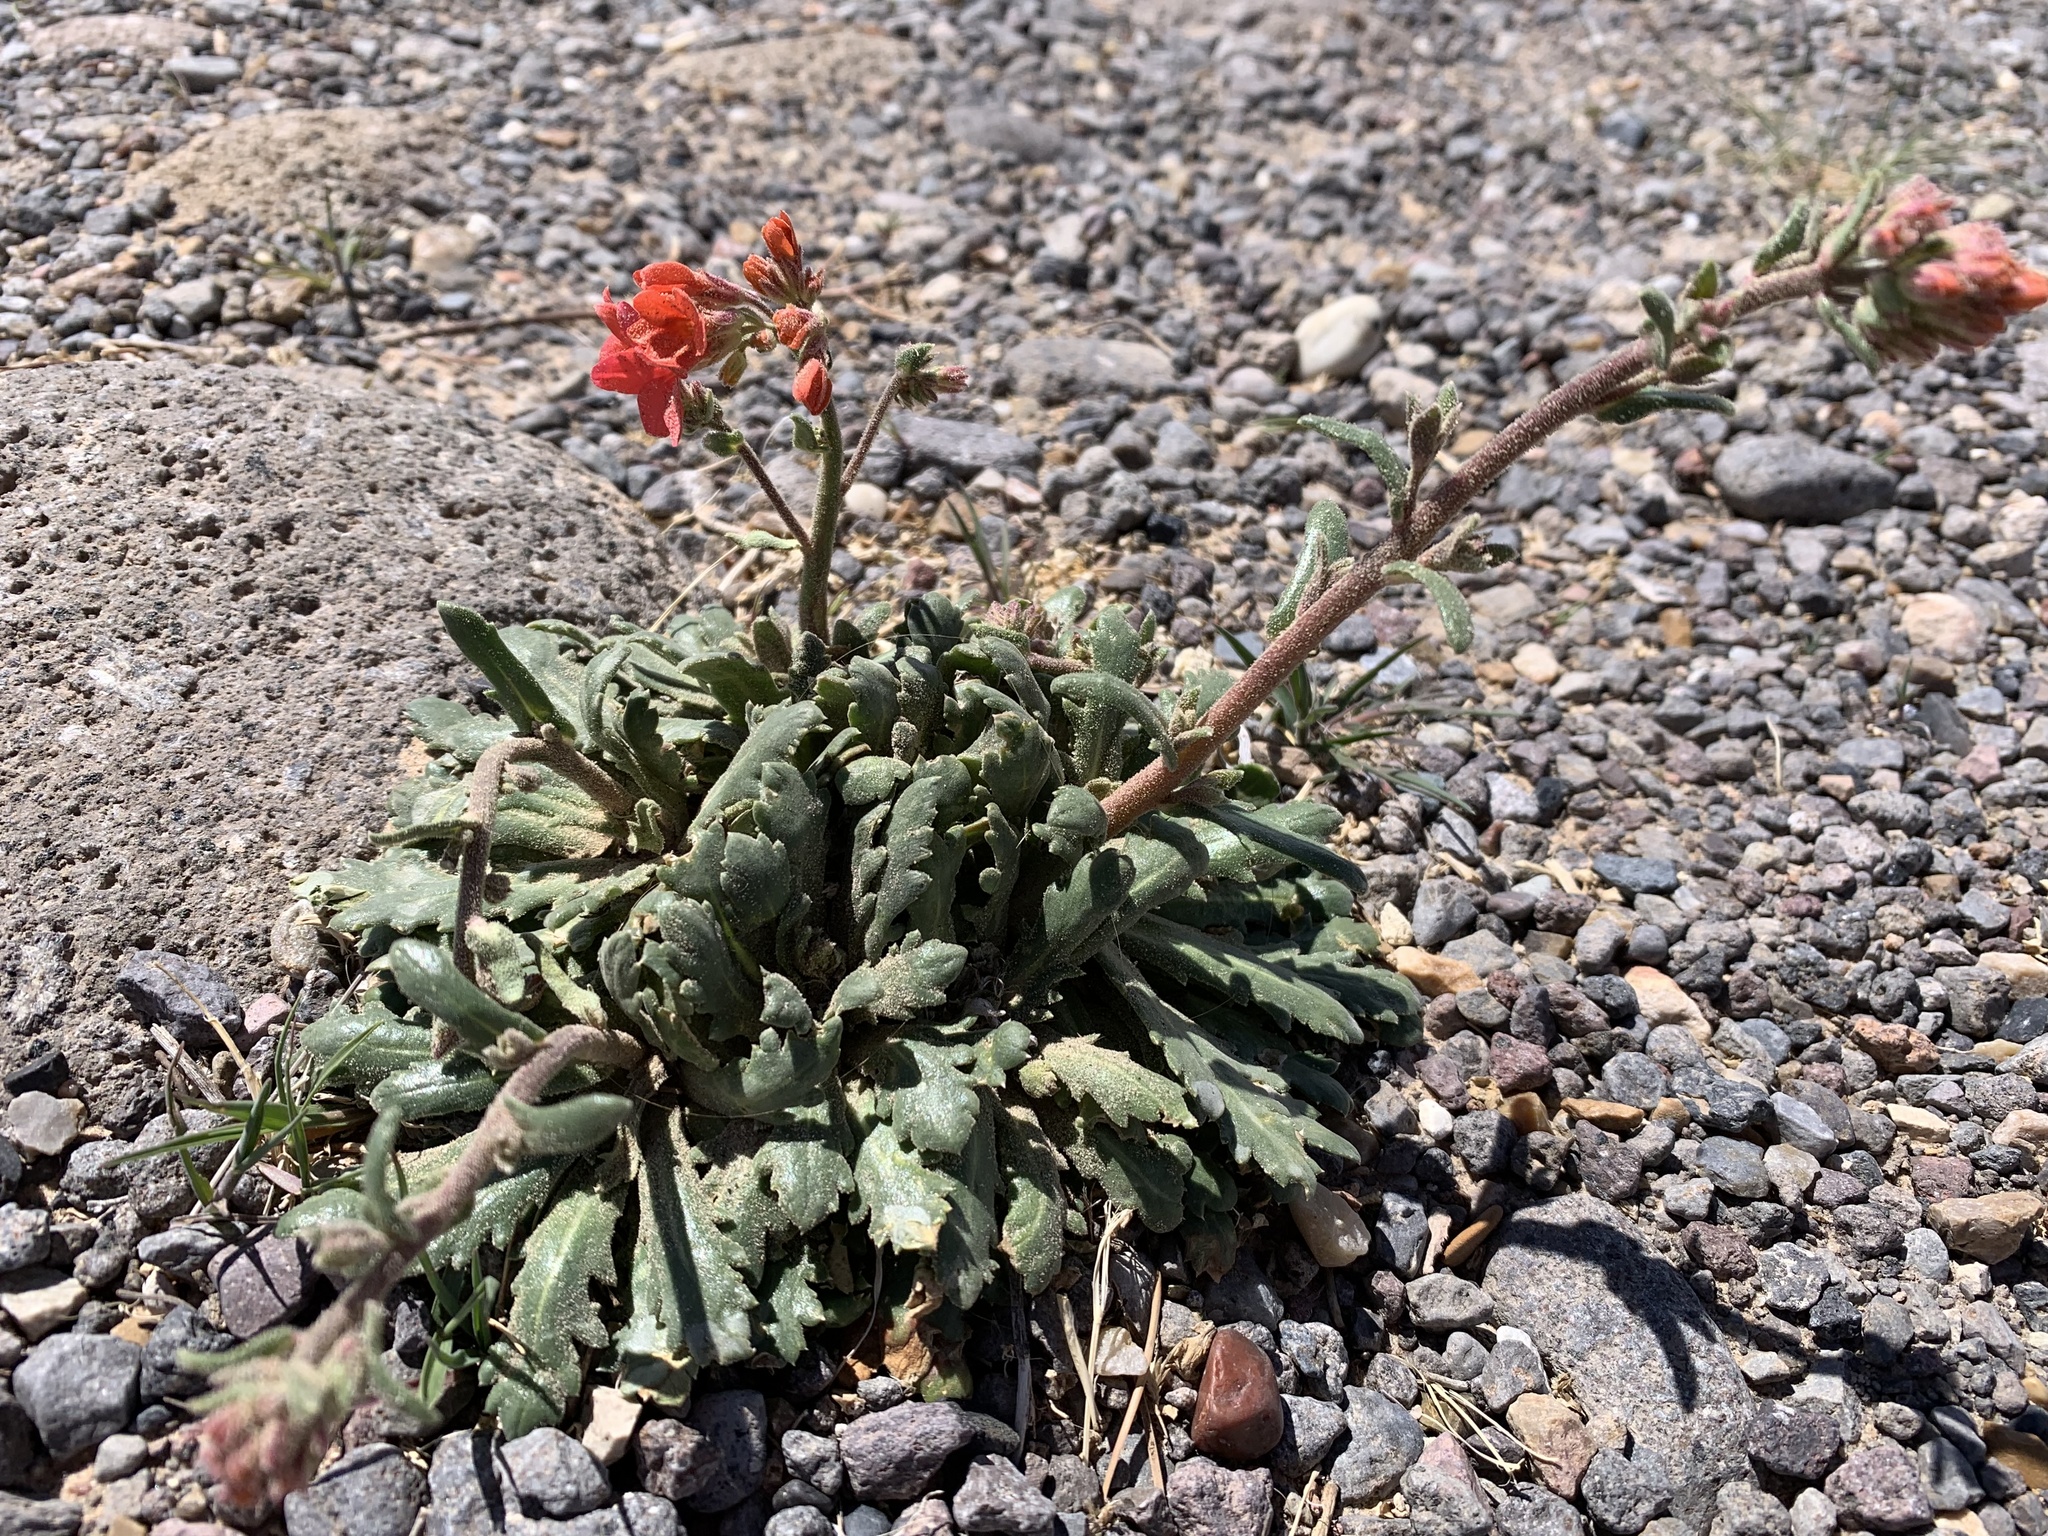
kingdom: Plantae
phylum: Tracheophyta
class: Magnoliopsida
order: Ericales
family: Polemoniaceae
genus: Aliciella
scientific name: Aliciella subnuda
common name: Coral gilia
